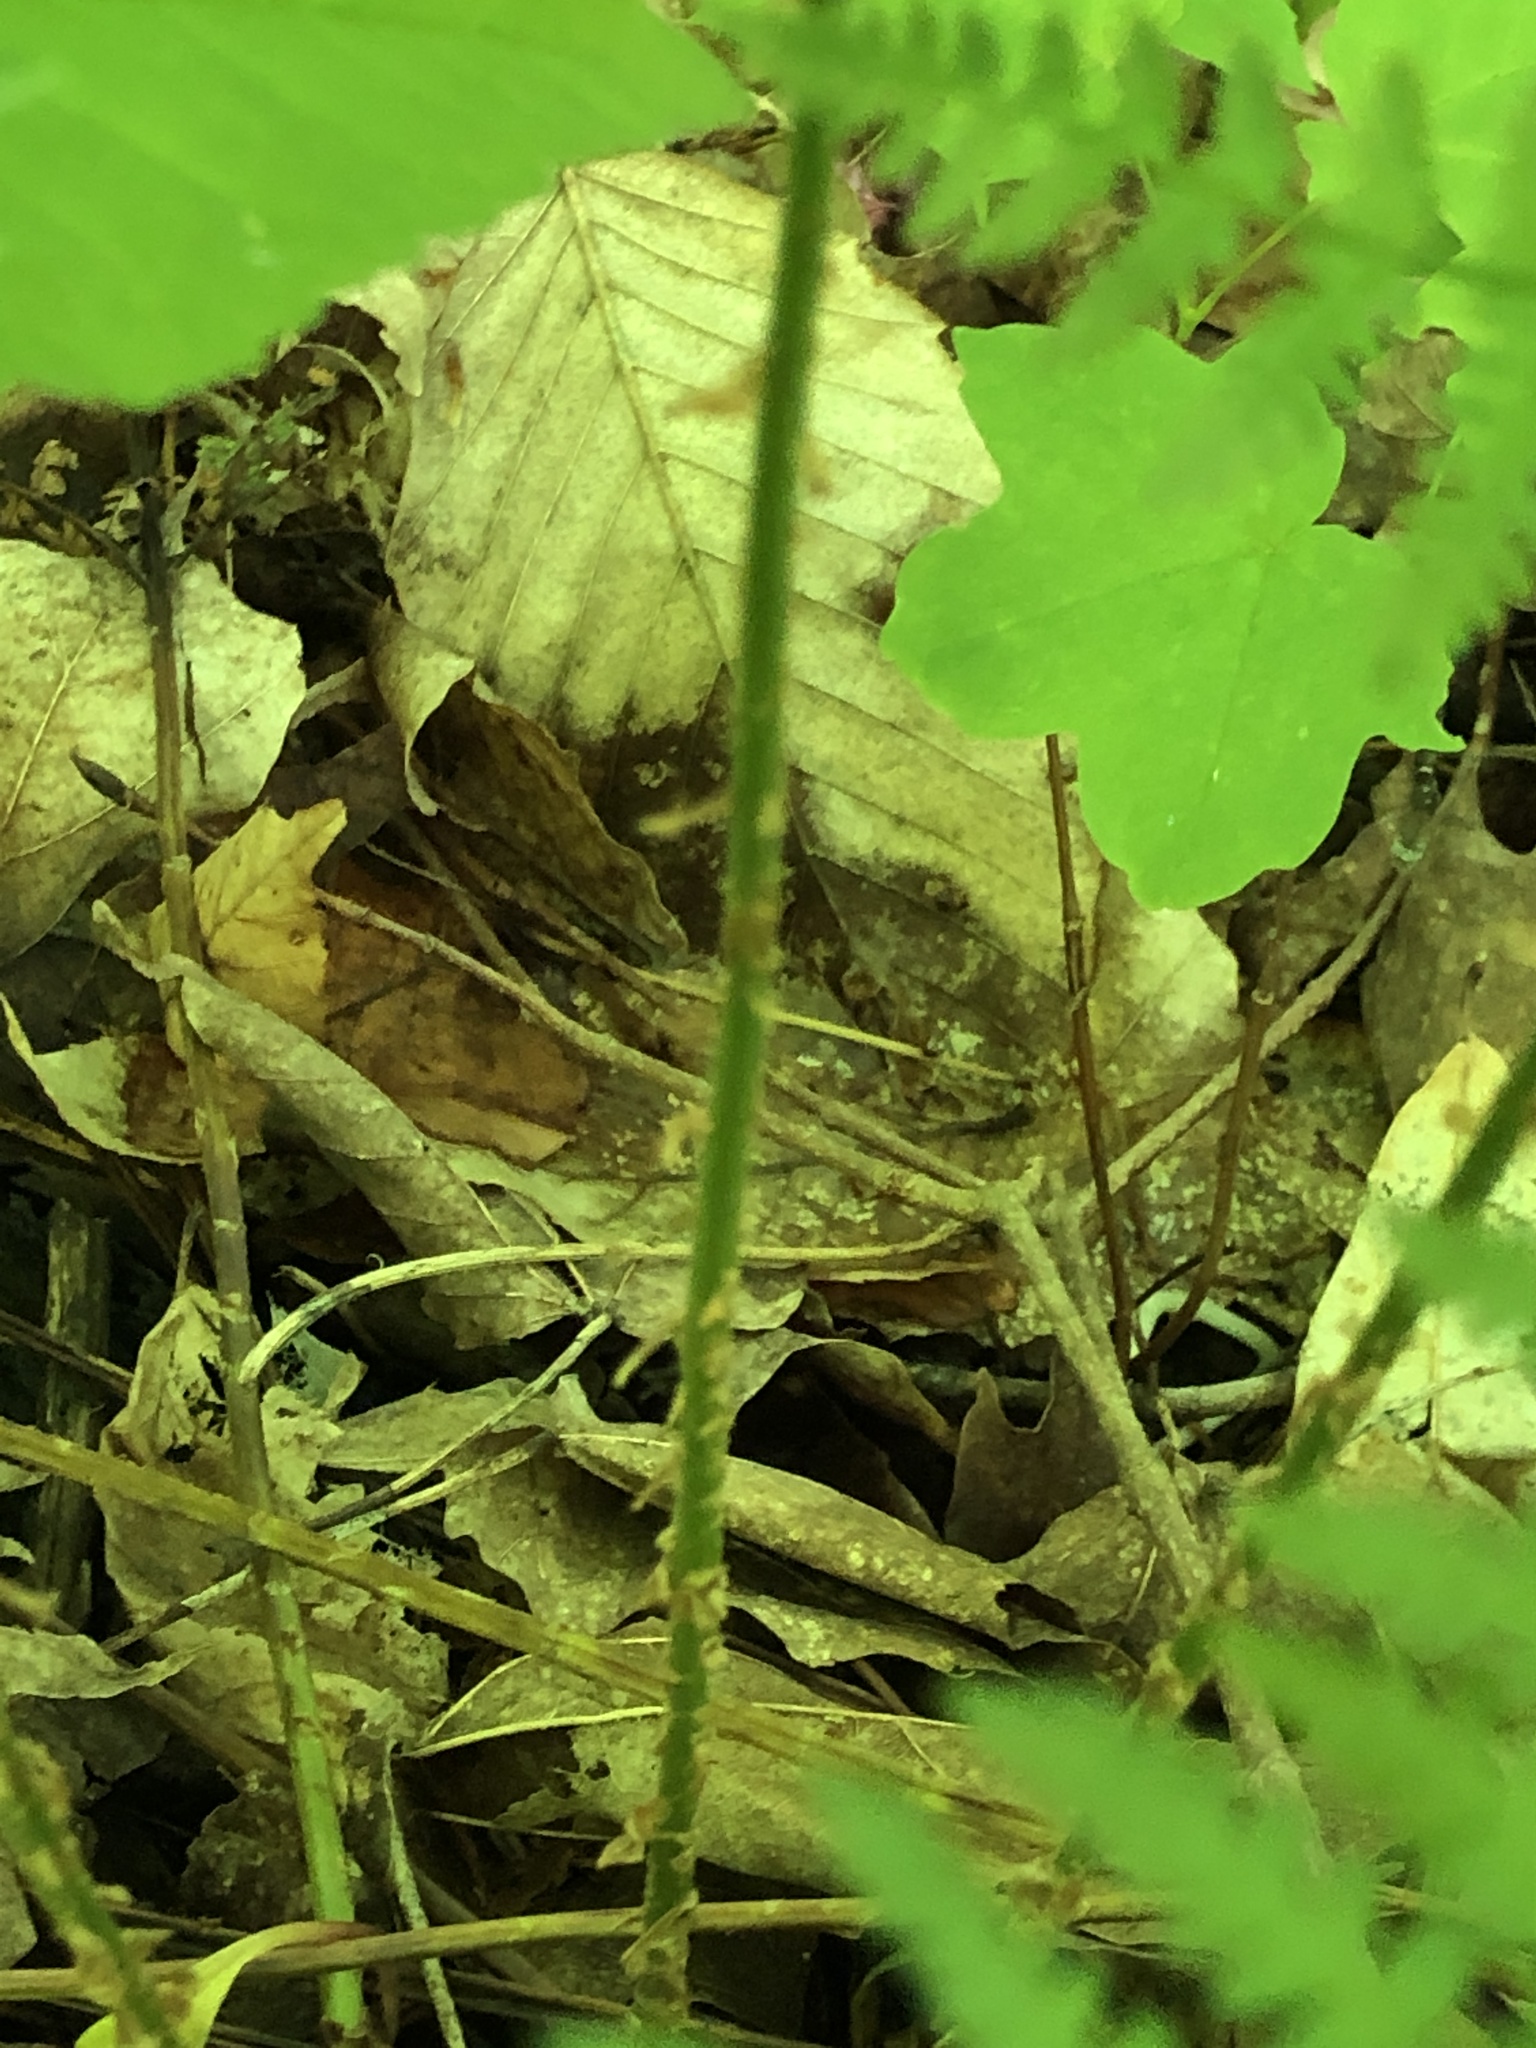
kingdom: Plantae
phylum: Tracheophyta
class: Polypodiopsida
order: Polypodiales
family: Dryopteridaceae
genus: Dryopteris
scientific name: Dryopteris carthusiana
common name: Narrow buckler-fern
